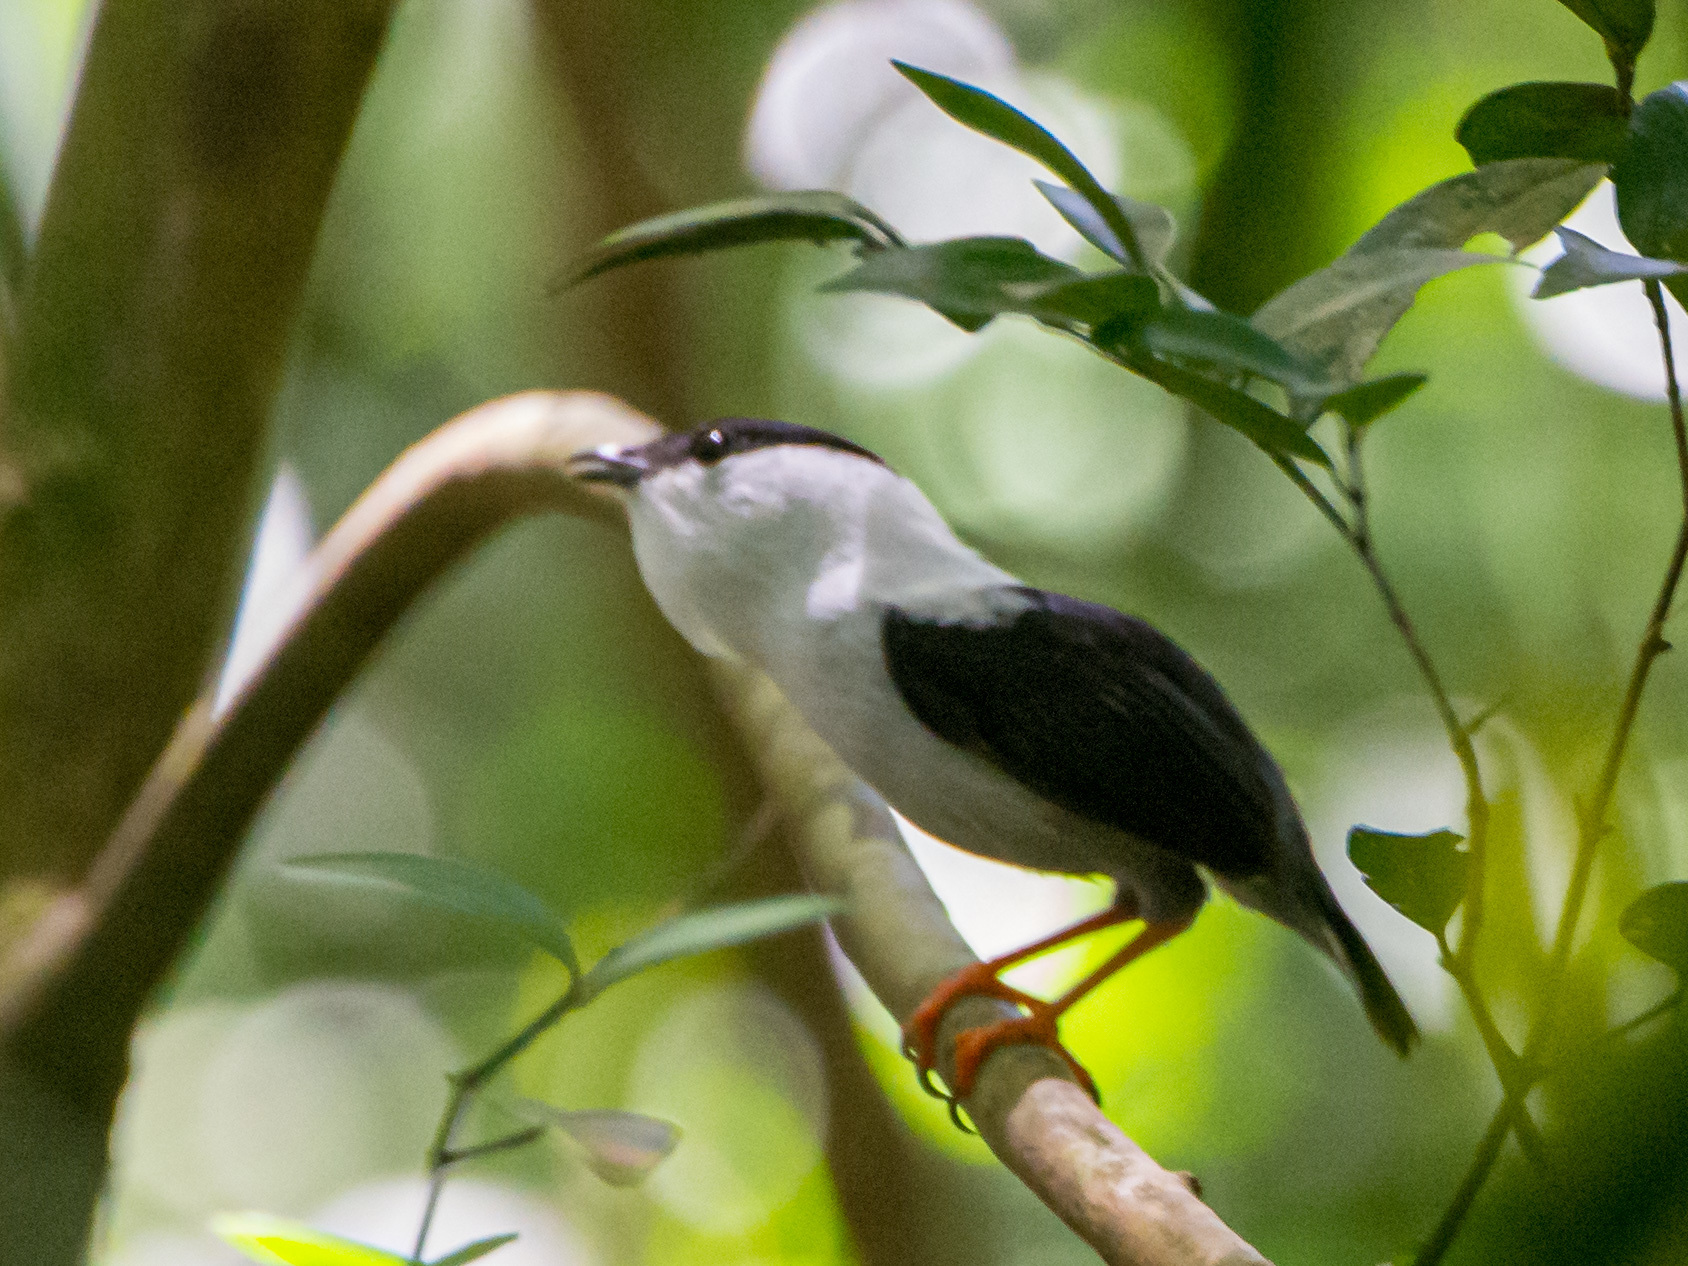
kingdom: Animalia
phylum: Chordata
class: Aves
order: Passeriformes
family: Pipridae
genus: Manacus
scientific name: Manacus manacus
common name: White-bearded manakin
